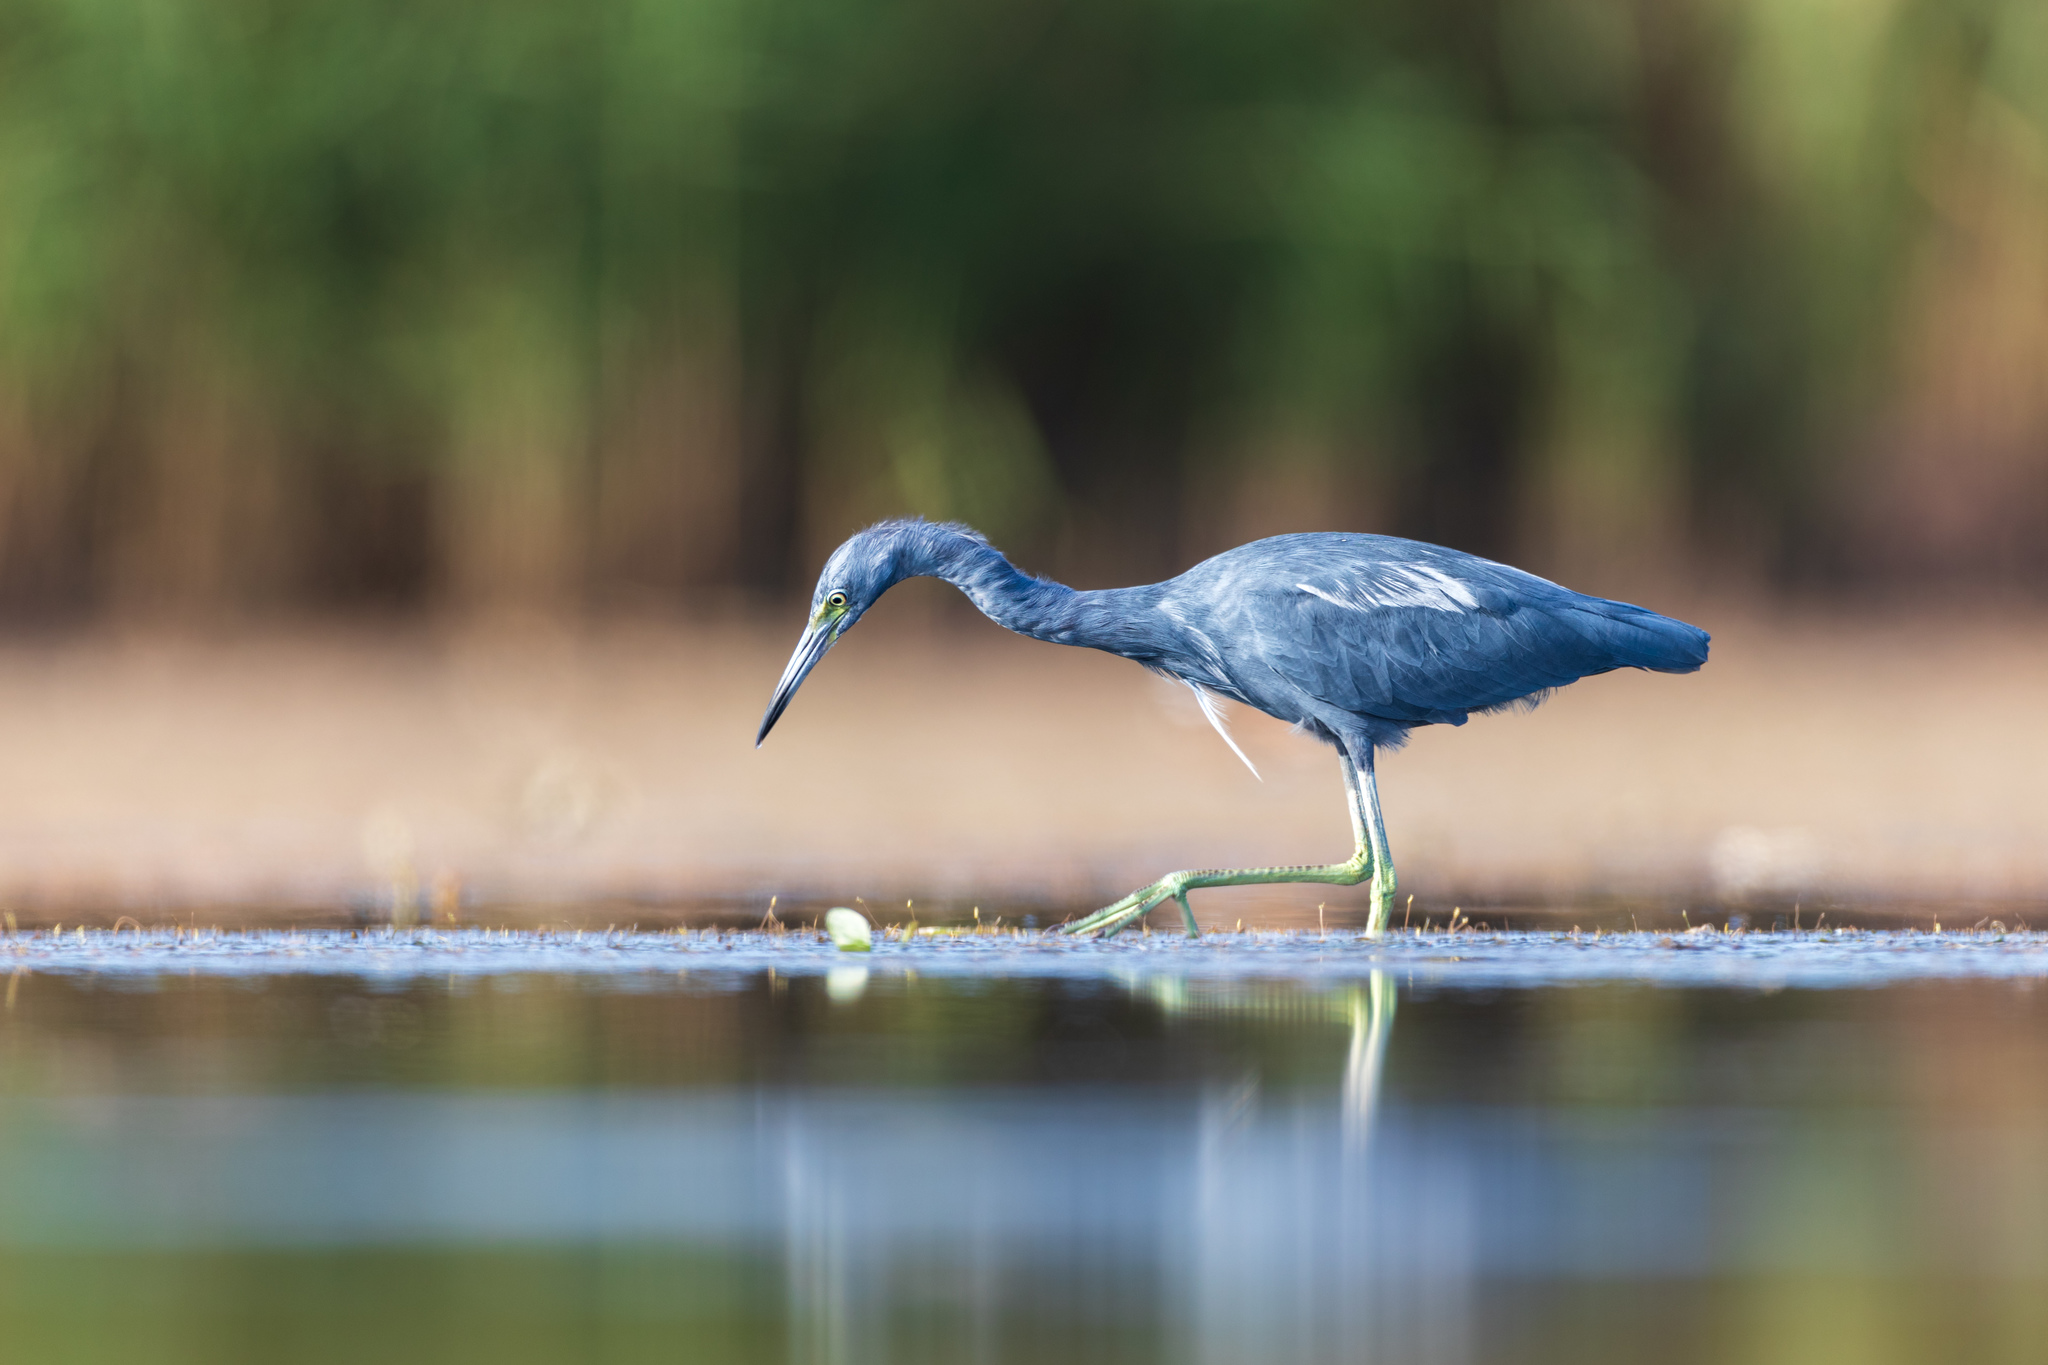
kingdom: Animalia
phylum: Chordata
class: Aves
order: Pelecaniformes
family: Ardeidae
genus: Egretta
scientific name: Egretta caerulea
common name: Little blue heron
